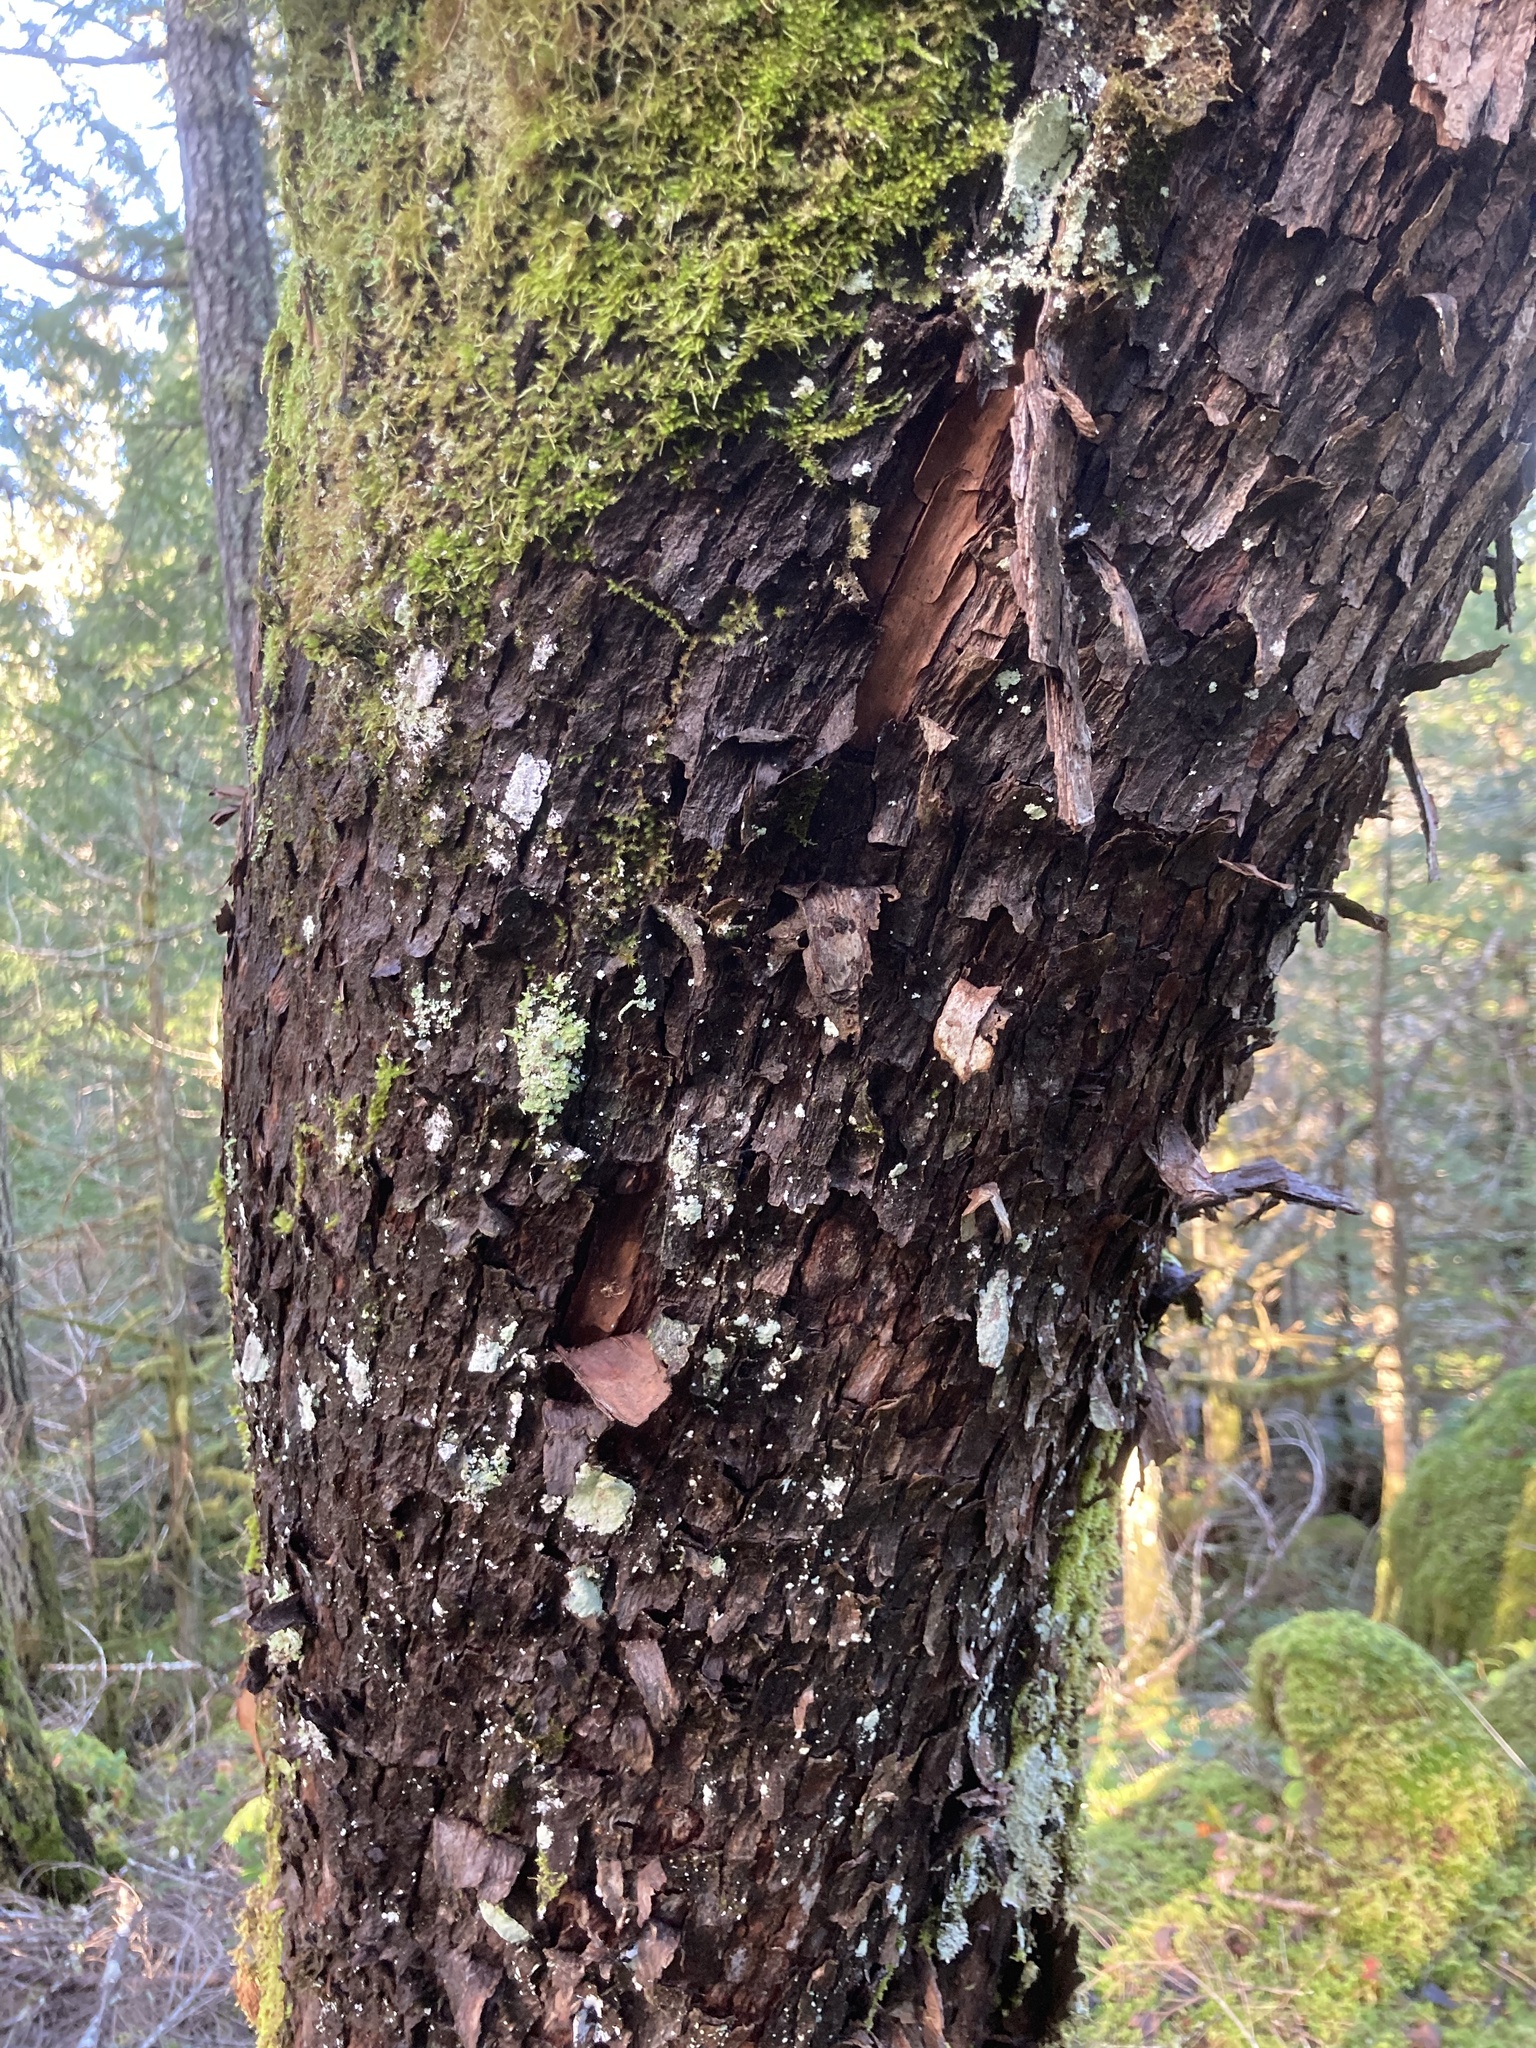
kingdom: Plantae
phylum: Tracheophyta
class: Magnoliopsida
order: Ericales
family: Ericaceae
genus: Arbutus
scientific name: Arbutus menziesii
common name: Pacific madrone
